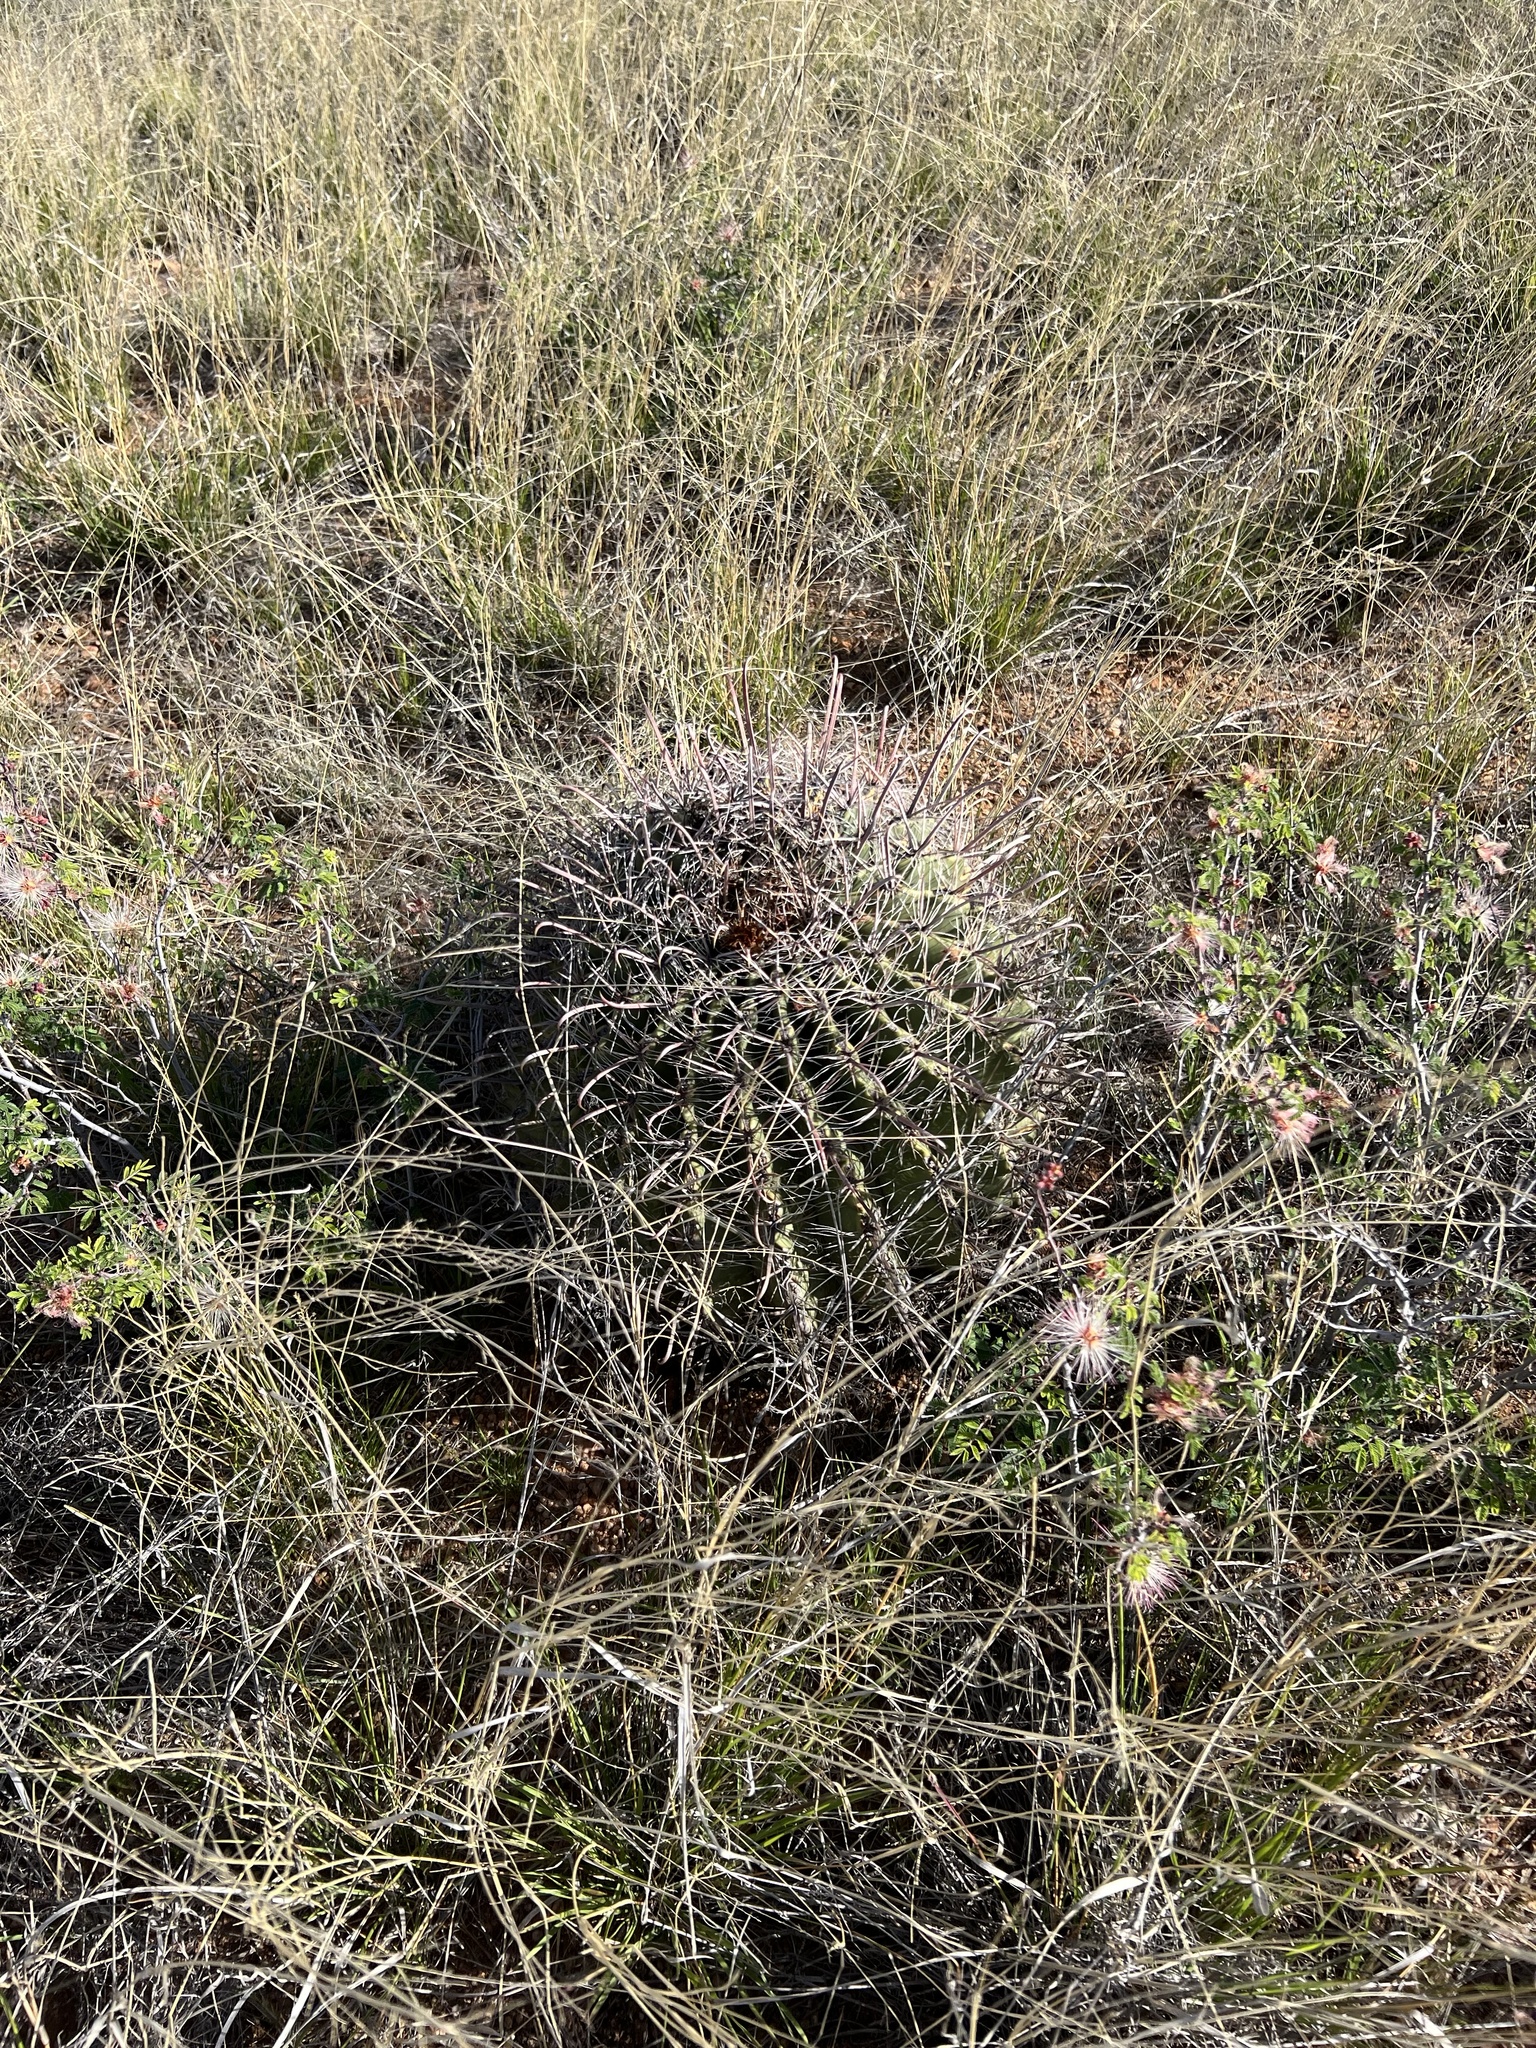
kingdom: Plantae
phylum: Tracheophyta
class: Magnoliopsida
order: Caryophyllales
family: Cactaceae
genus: Ferocactus
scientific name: Ferocactus wislizeni
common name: Candy barrel cactus
